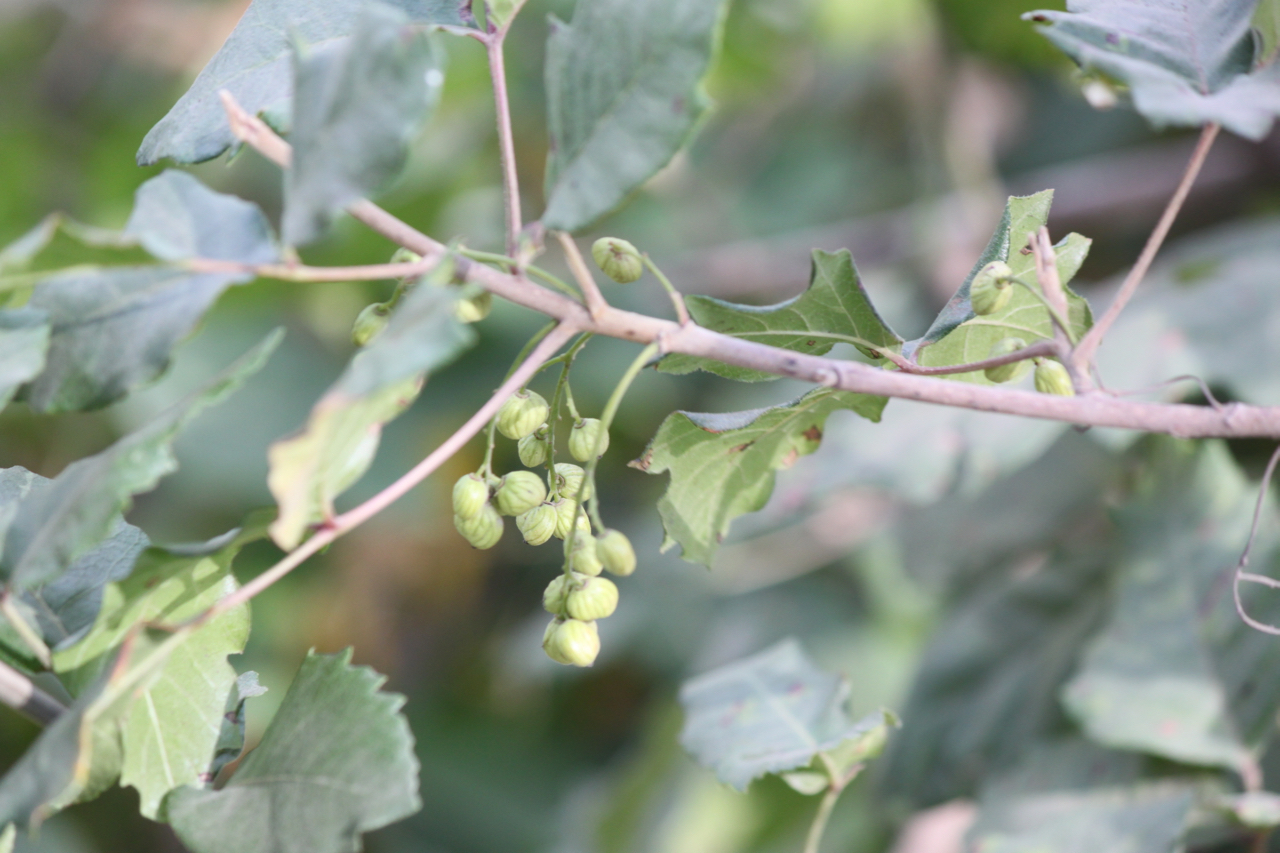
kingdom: Plantae
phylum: Tracheophyta
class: Magnoliopsida
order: Sapindales
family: Anacardiaceae
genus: Toxicodendron
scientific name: Toxicodendron diversilobum
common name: Pacific poison-oak
